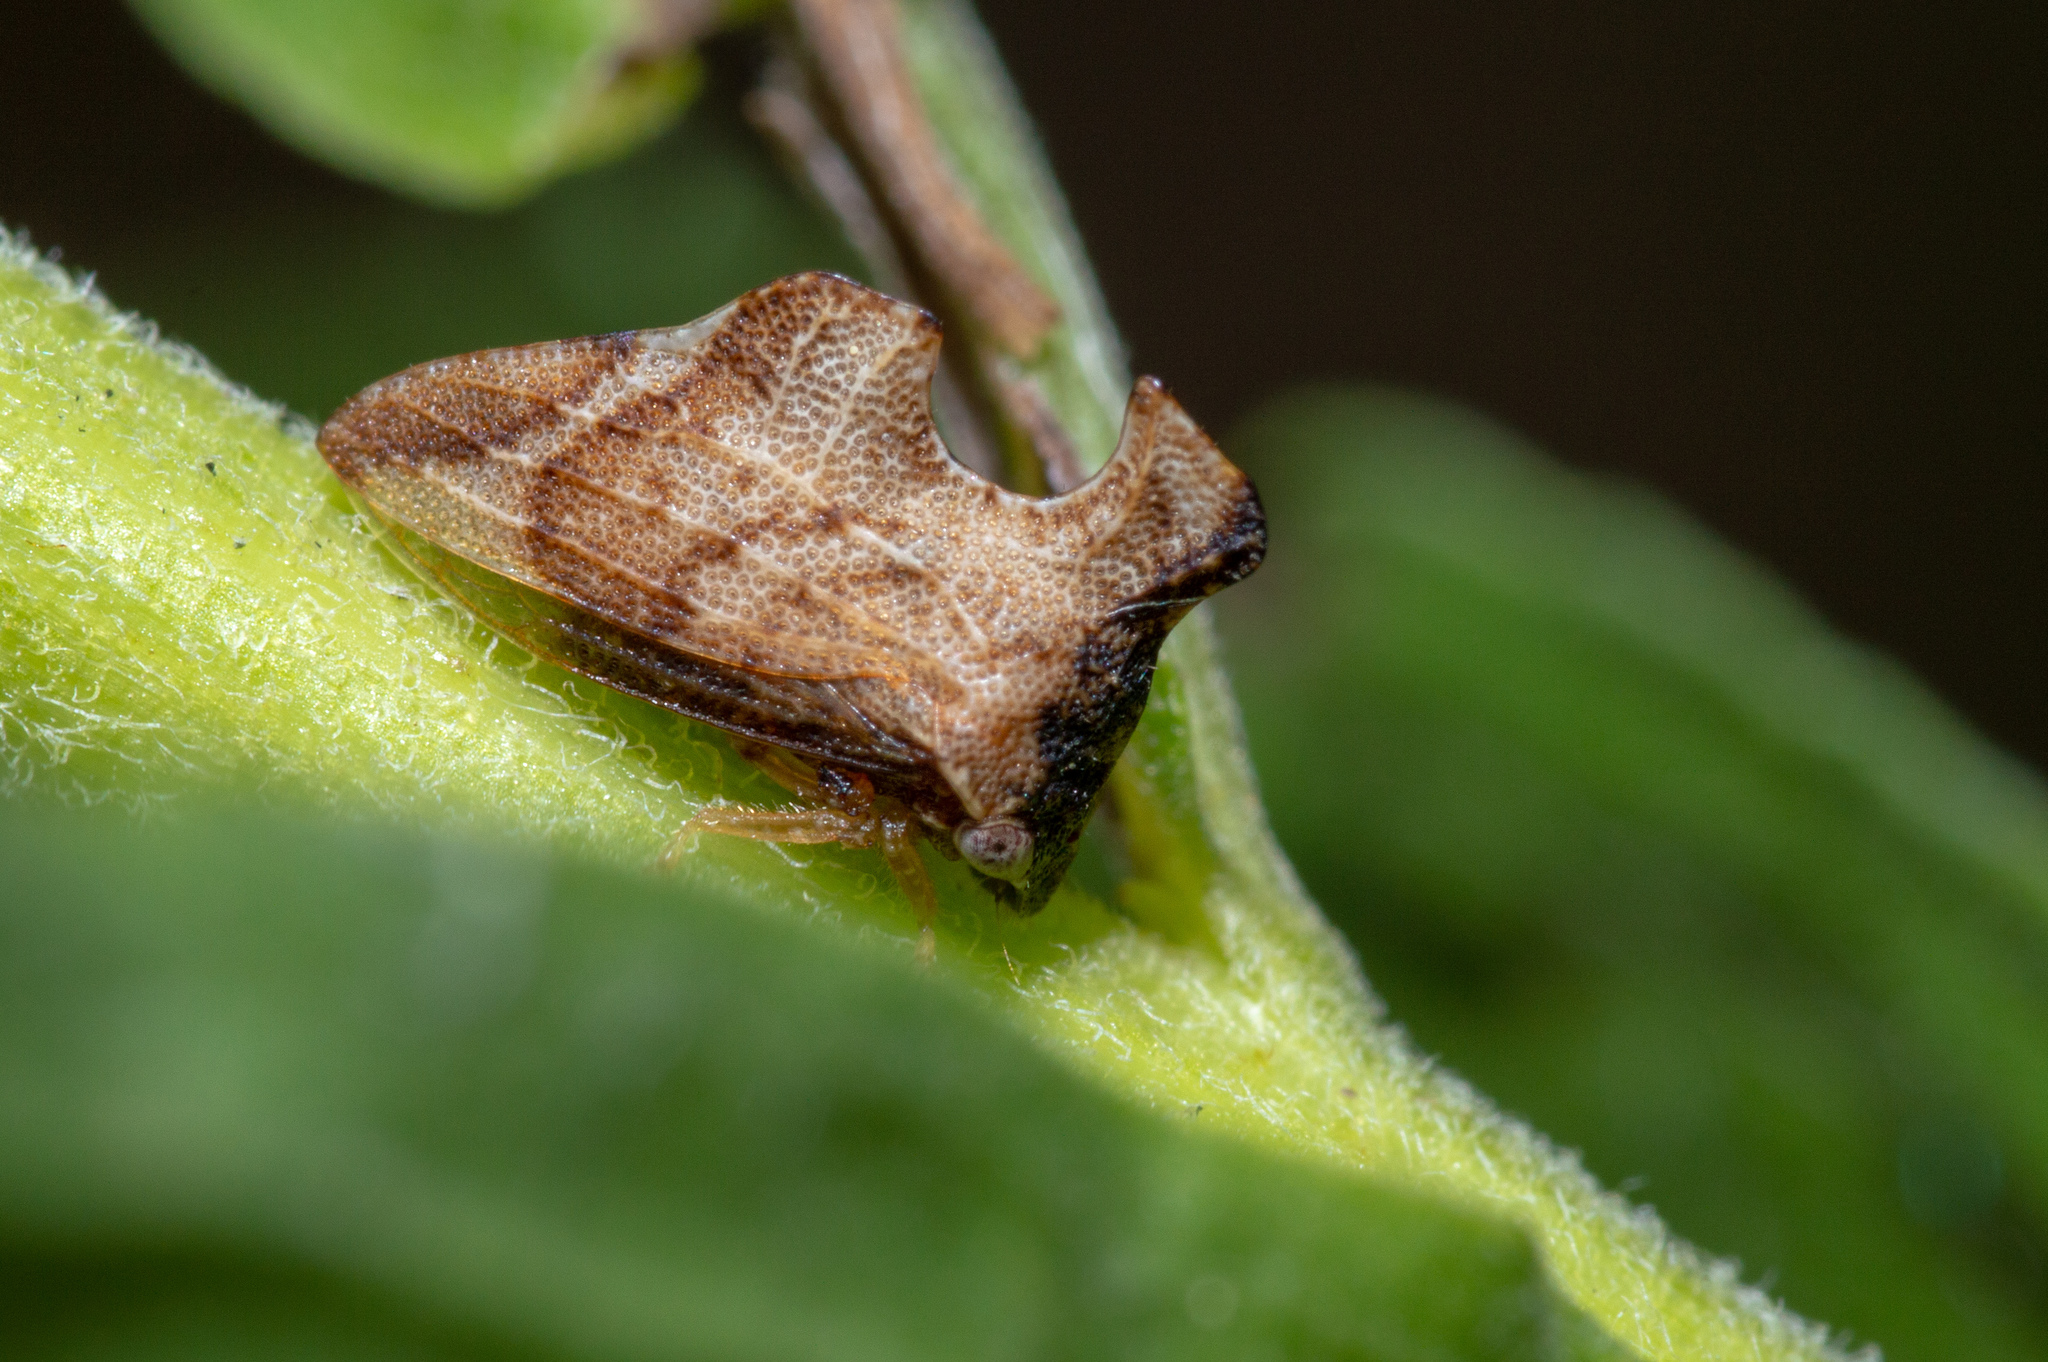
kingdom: Animalia
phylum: Arthropoda
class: Insecta
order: Hemiptera
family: Membracidae
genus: Entylia
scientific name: Entylia carinata
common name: Keeled treehopper
